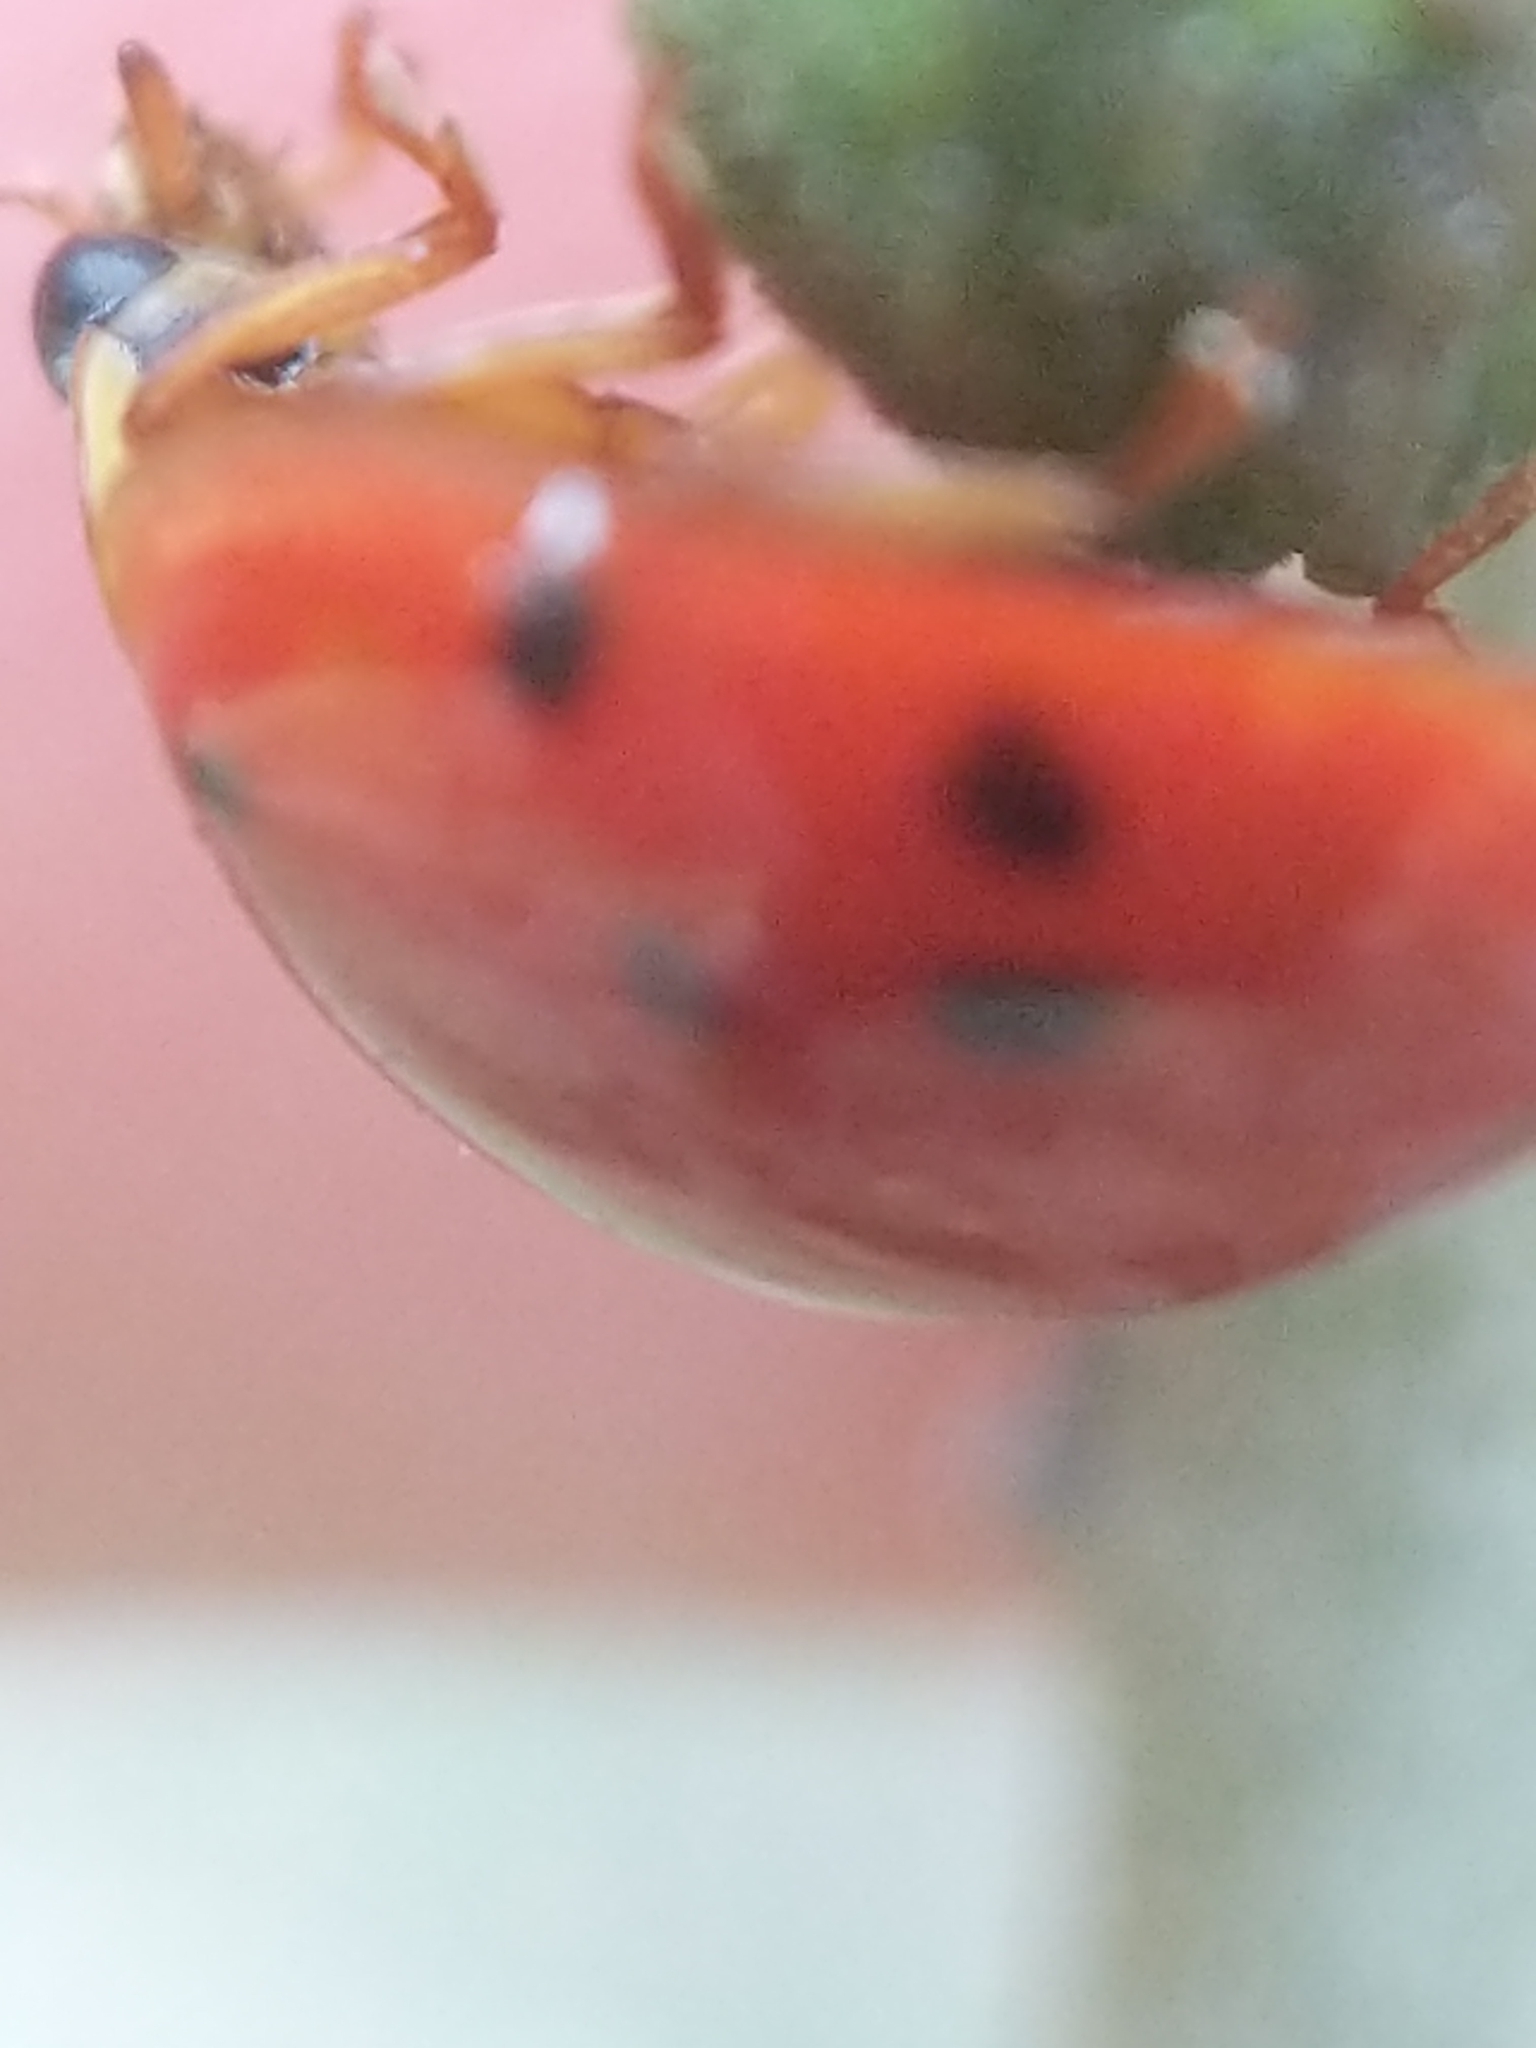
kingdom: Animalia
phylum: Arthropoda
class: Insecta
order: Coleoptera
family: Coccinellidae
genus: Harmonia
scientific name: Harmonia axyridis
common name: Harlequin ladybird
